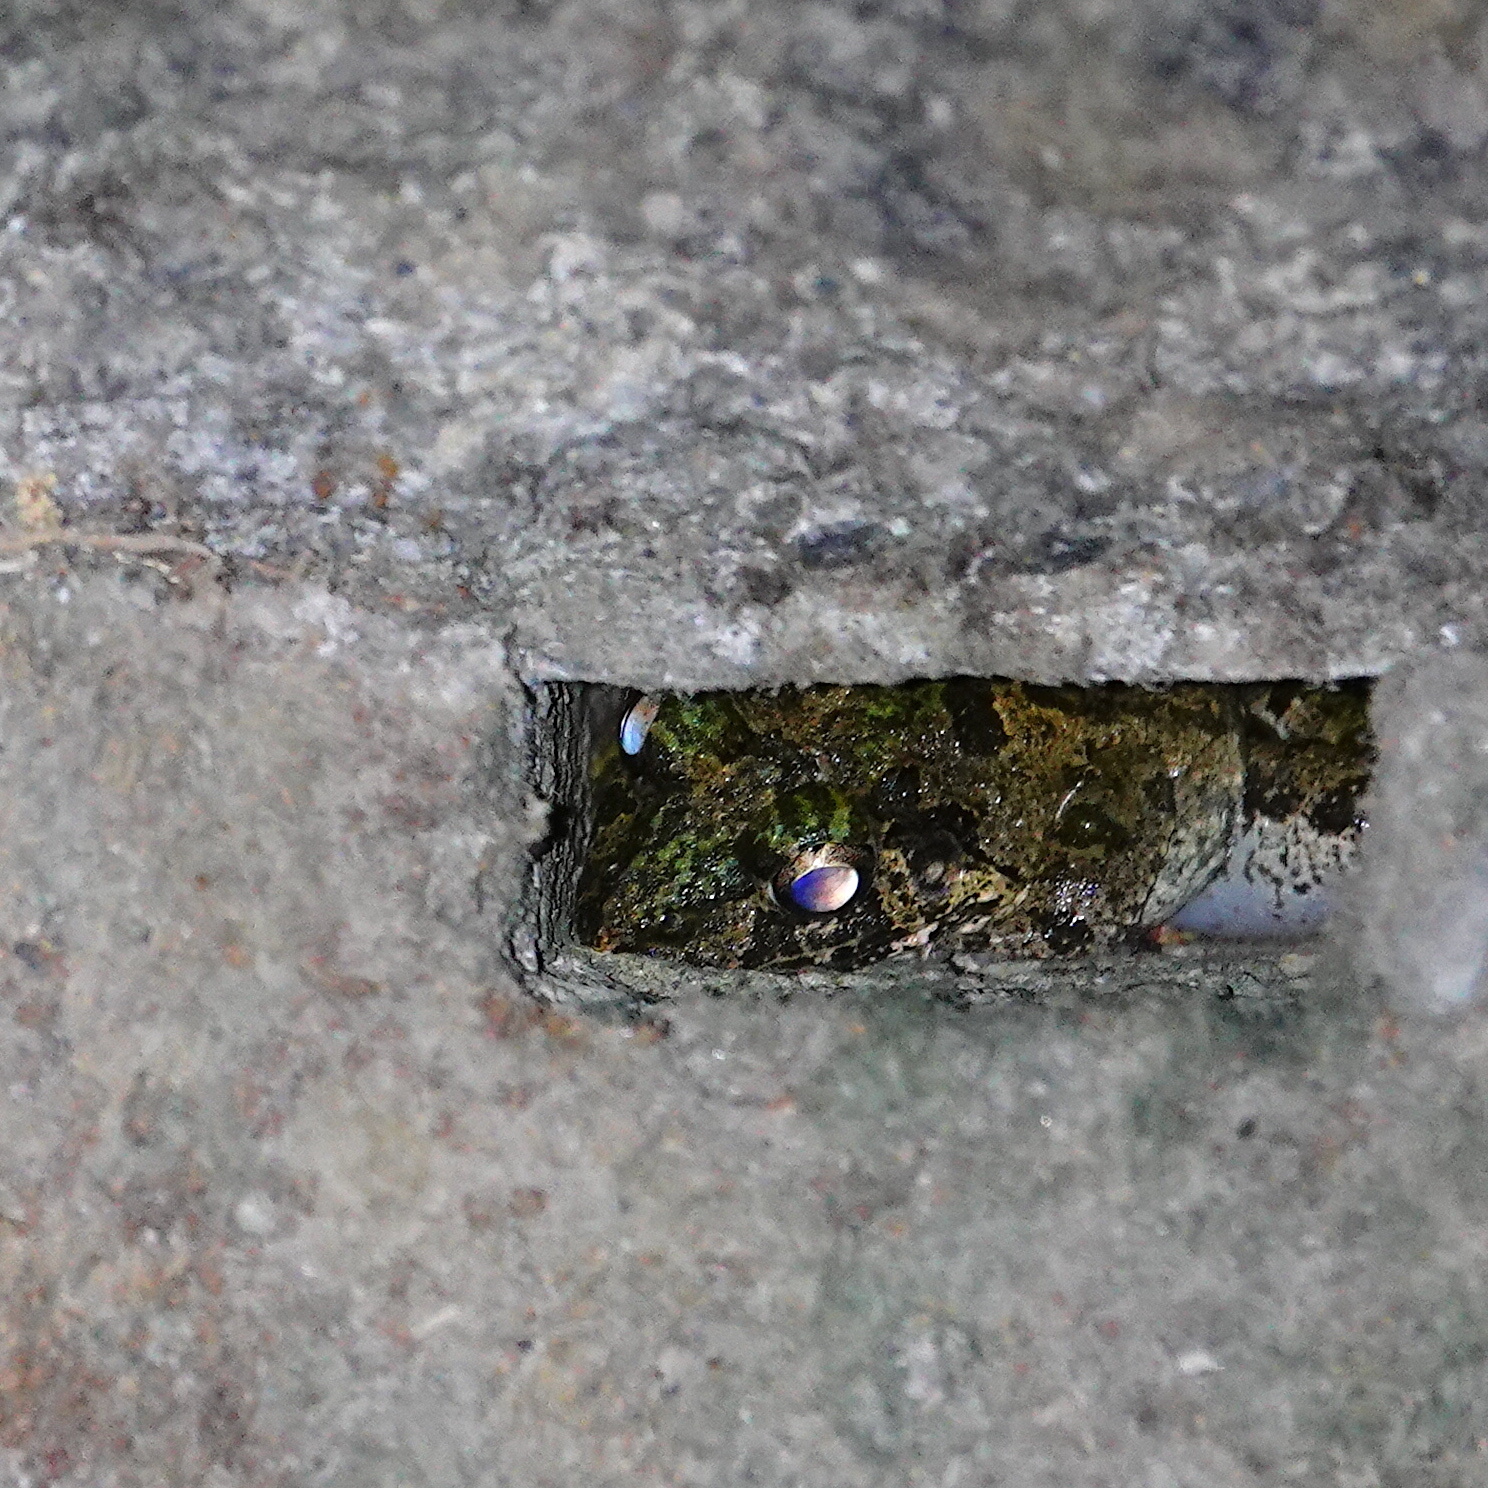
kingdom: Animalia
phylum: Chordata
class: Amphibia
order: Anura
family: Dicroglossidae
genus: Fejervarya
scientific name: Fejervarya limnocharis
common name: Asian grass frog/common pond frog/field frog/grass frog/indian rice frog
